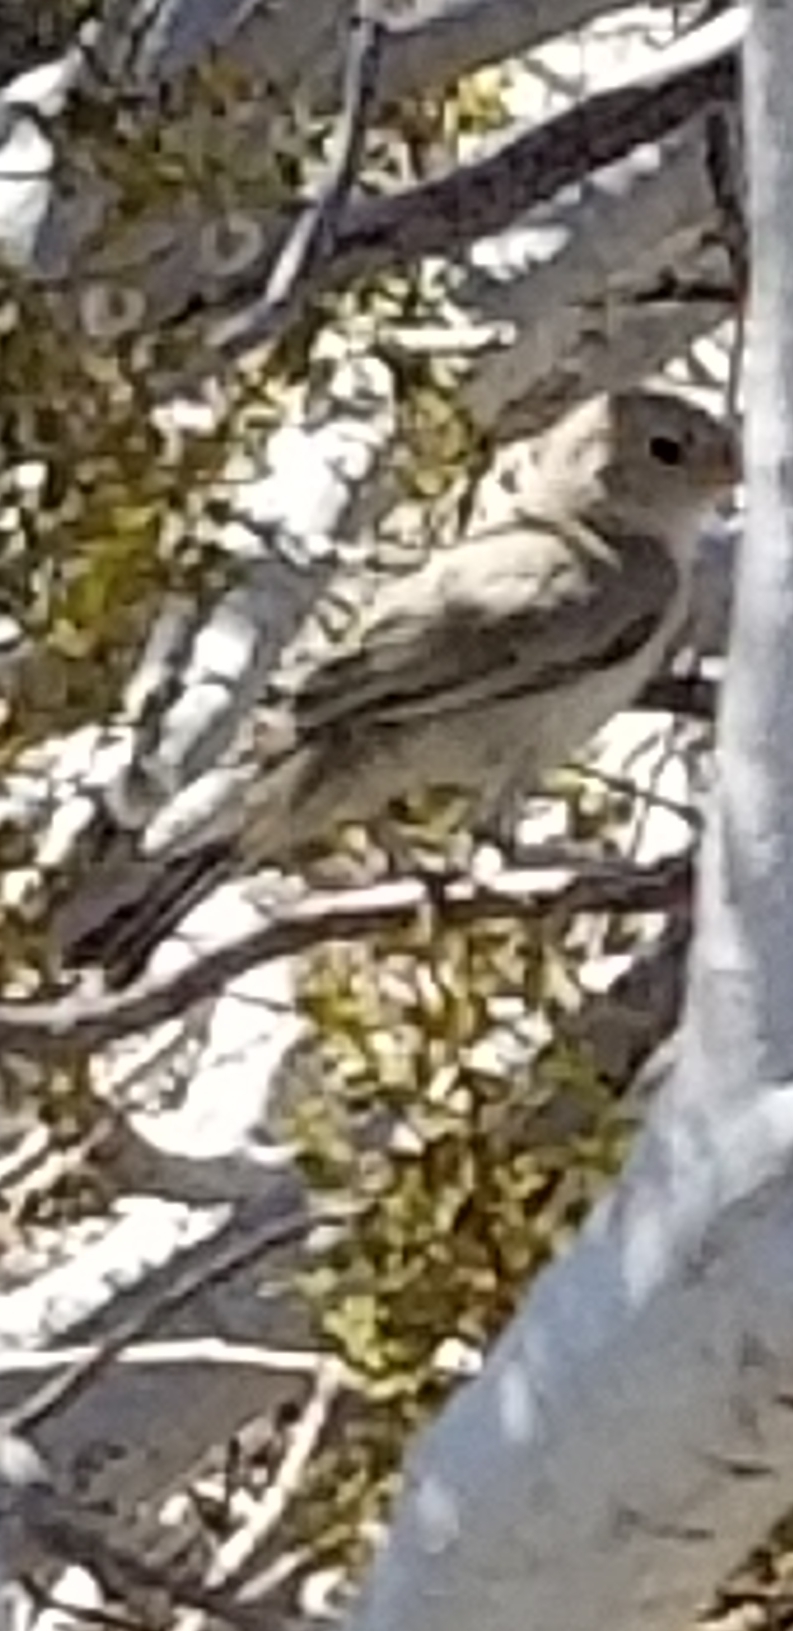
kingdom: Animalia
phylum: Chordata
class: Aves
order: Passeriformes
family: Remizidae
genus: Auriparus
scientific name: Auriparus flaviceps
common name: Verdin
